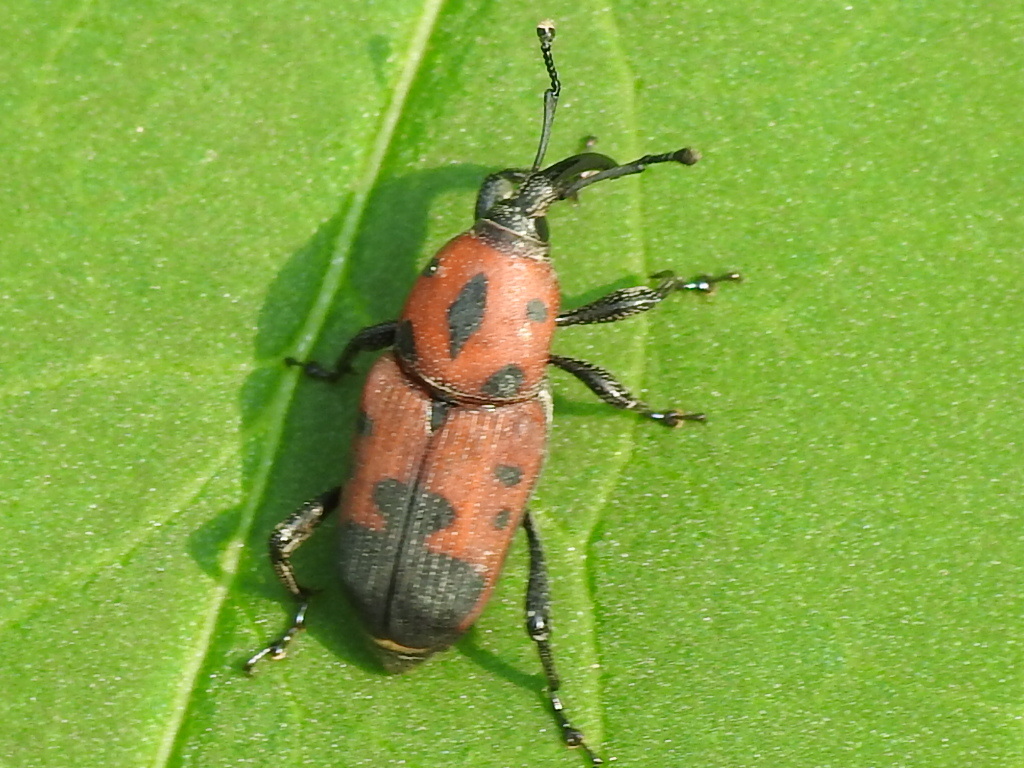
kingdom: Animalia
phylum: Arthropoda
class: Insecta
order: Coleoptera
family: Dryophthoridae
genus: Rhodobaenus
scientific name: Rhodobaenus quinquepunctatus
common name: Cocklebur weevil
